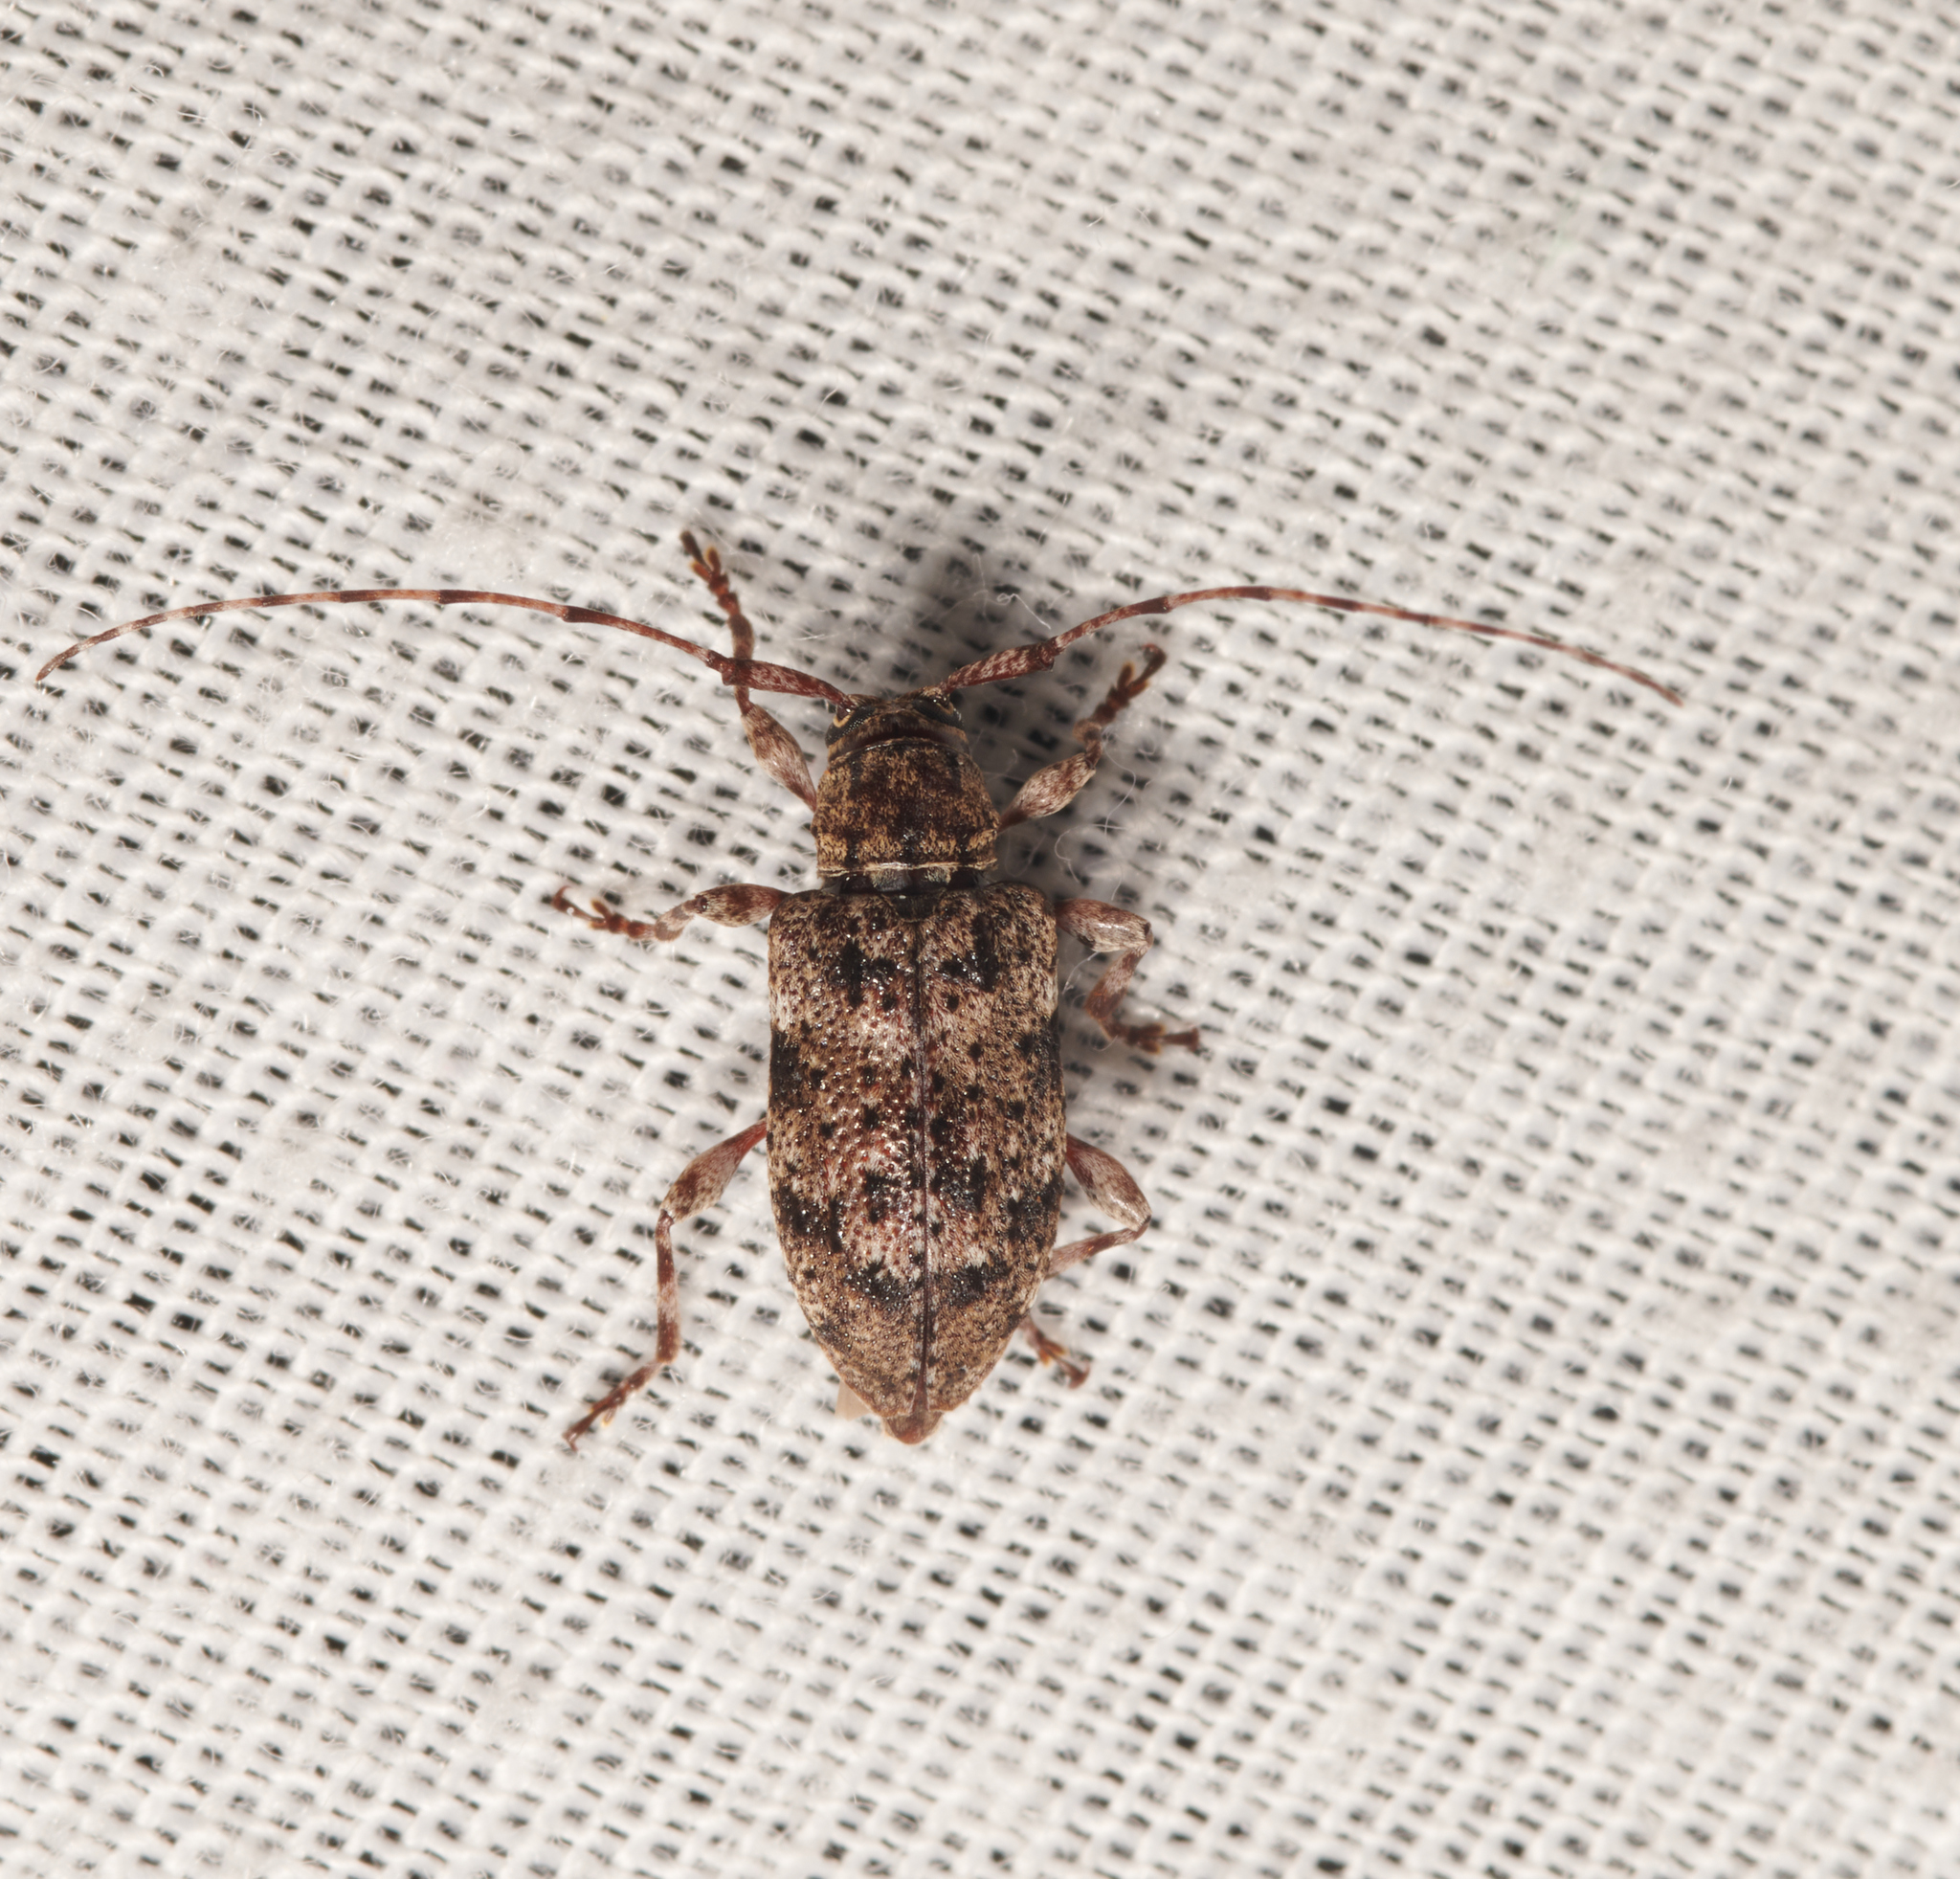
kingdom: Animalia
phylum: Arthropoda
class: Insecta
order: Coleoptera
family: Cerambycidae
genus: Astylopsis
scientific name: Astylopsis sexguttata
